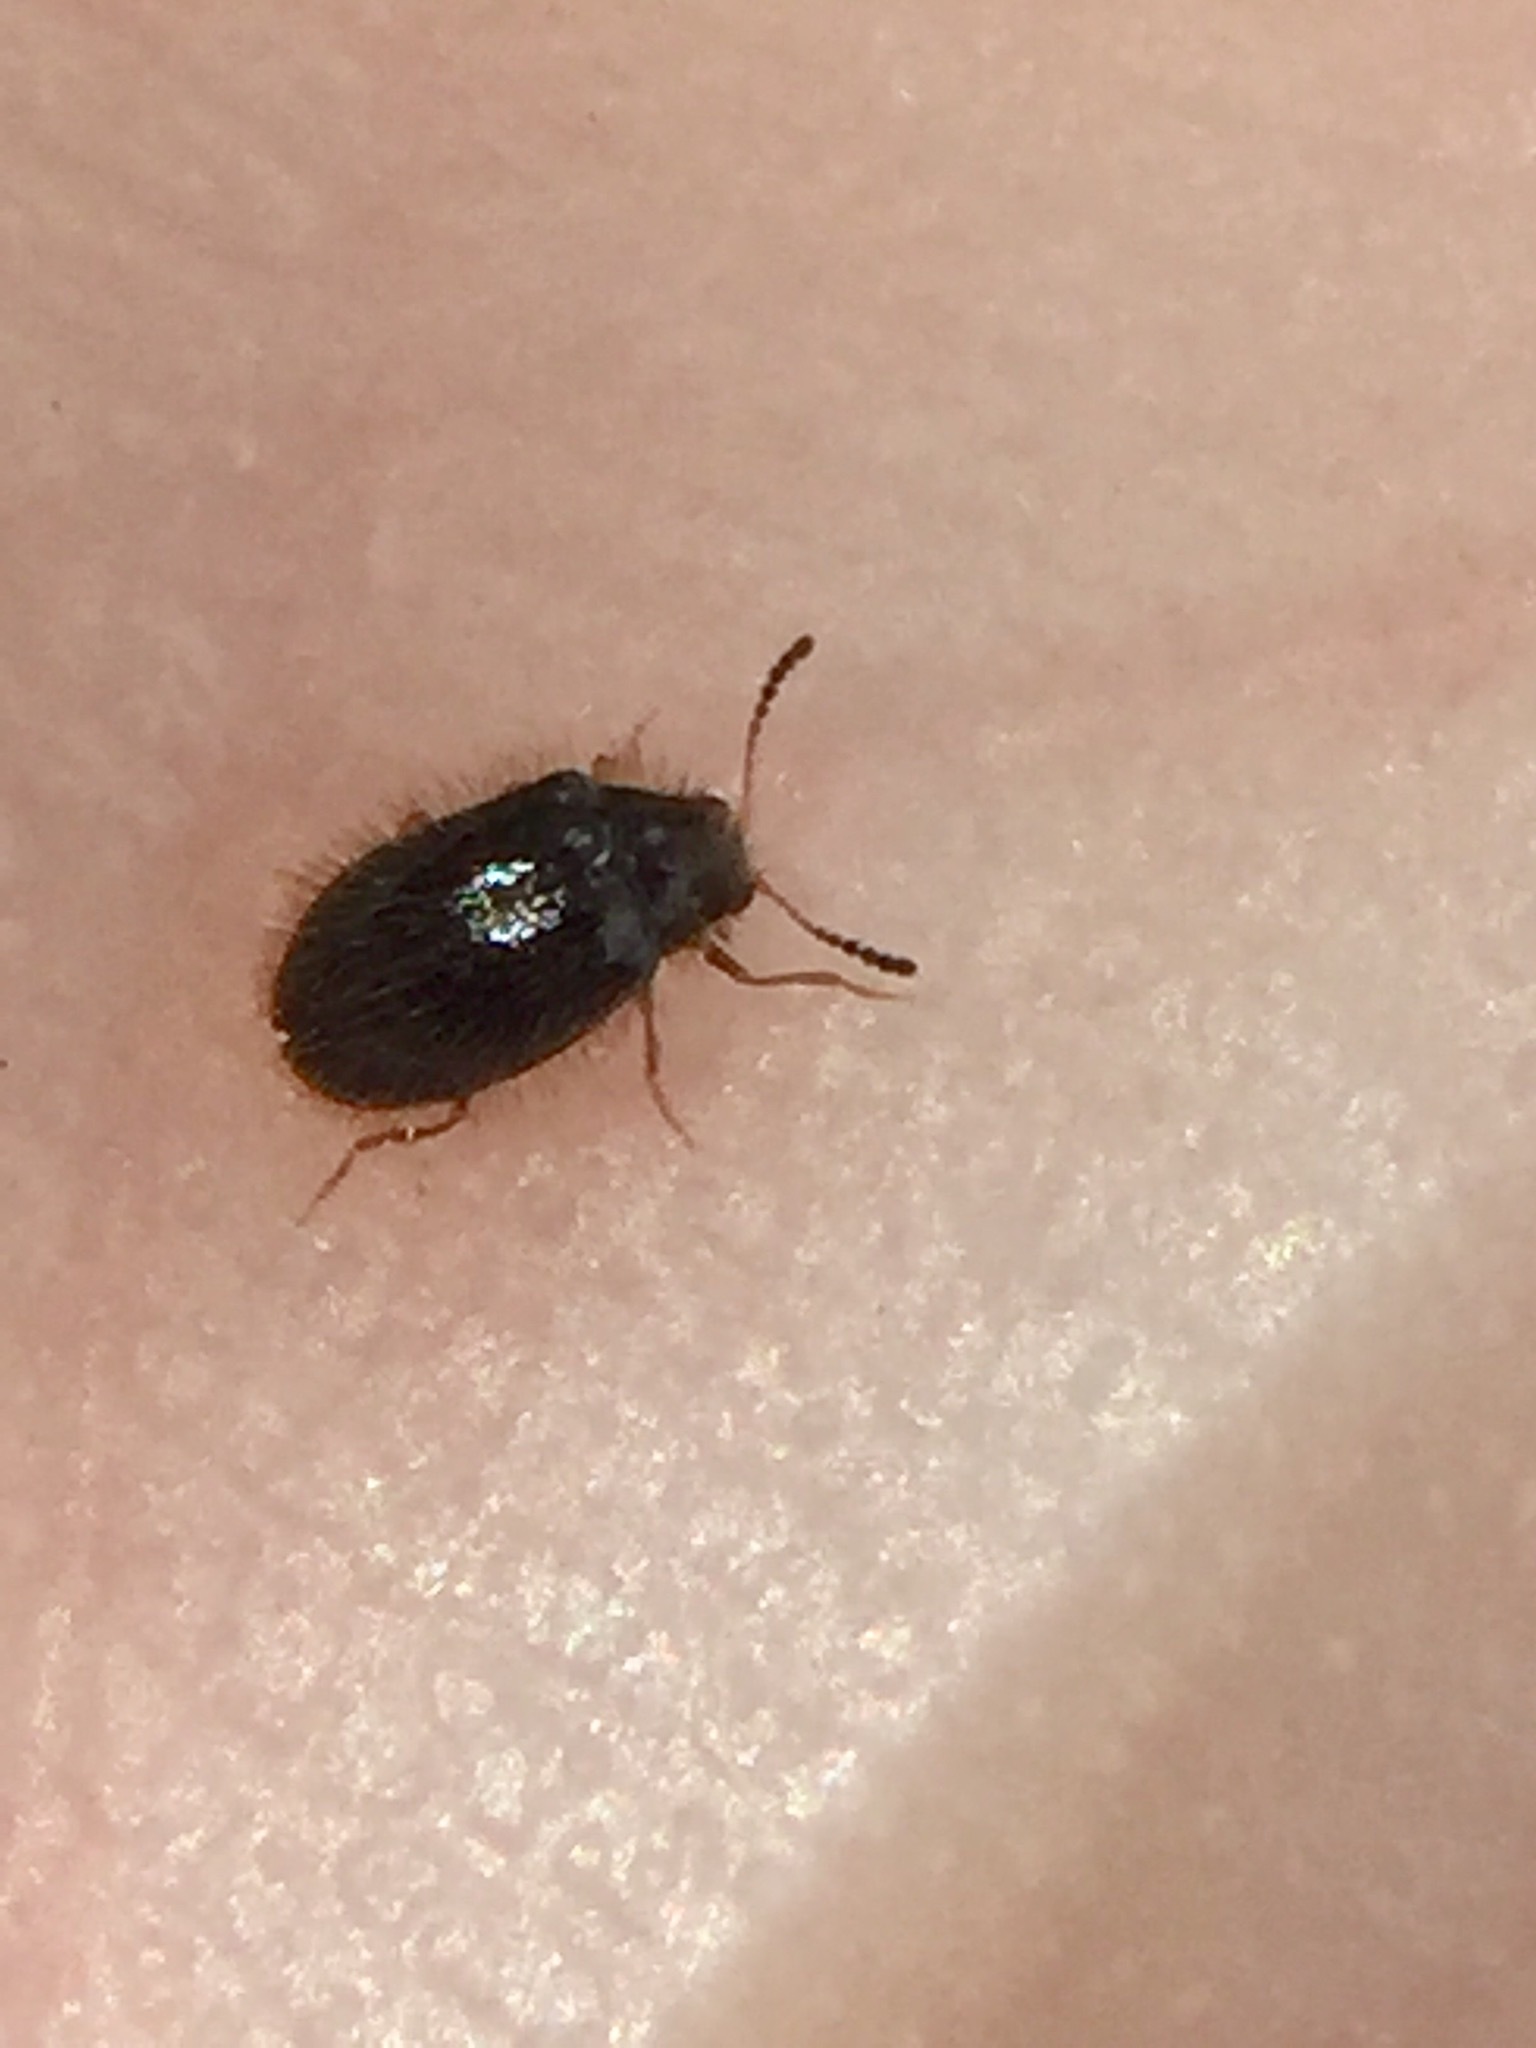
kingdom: Animalia
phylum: Arthropoda
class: Insecta
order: Coleoptera
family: Dermestidae
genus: Hexanodes
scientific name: Hexanodes
